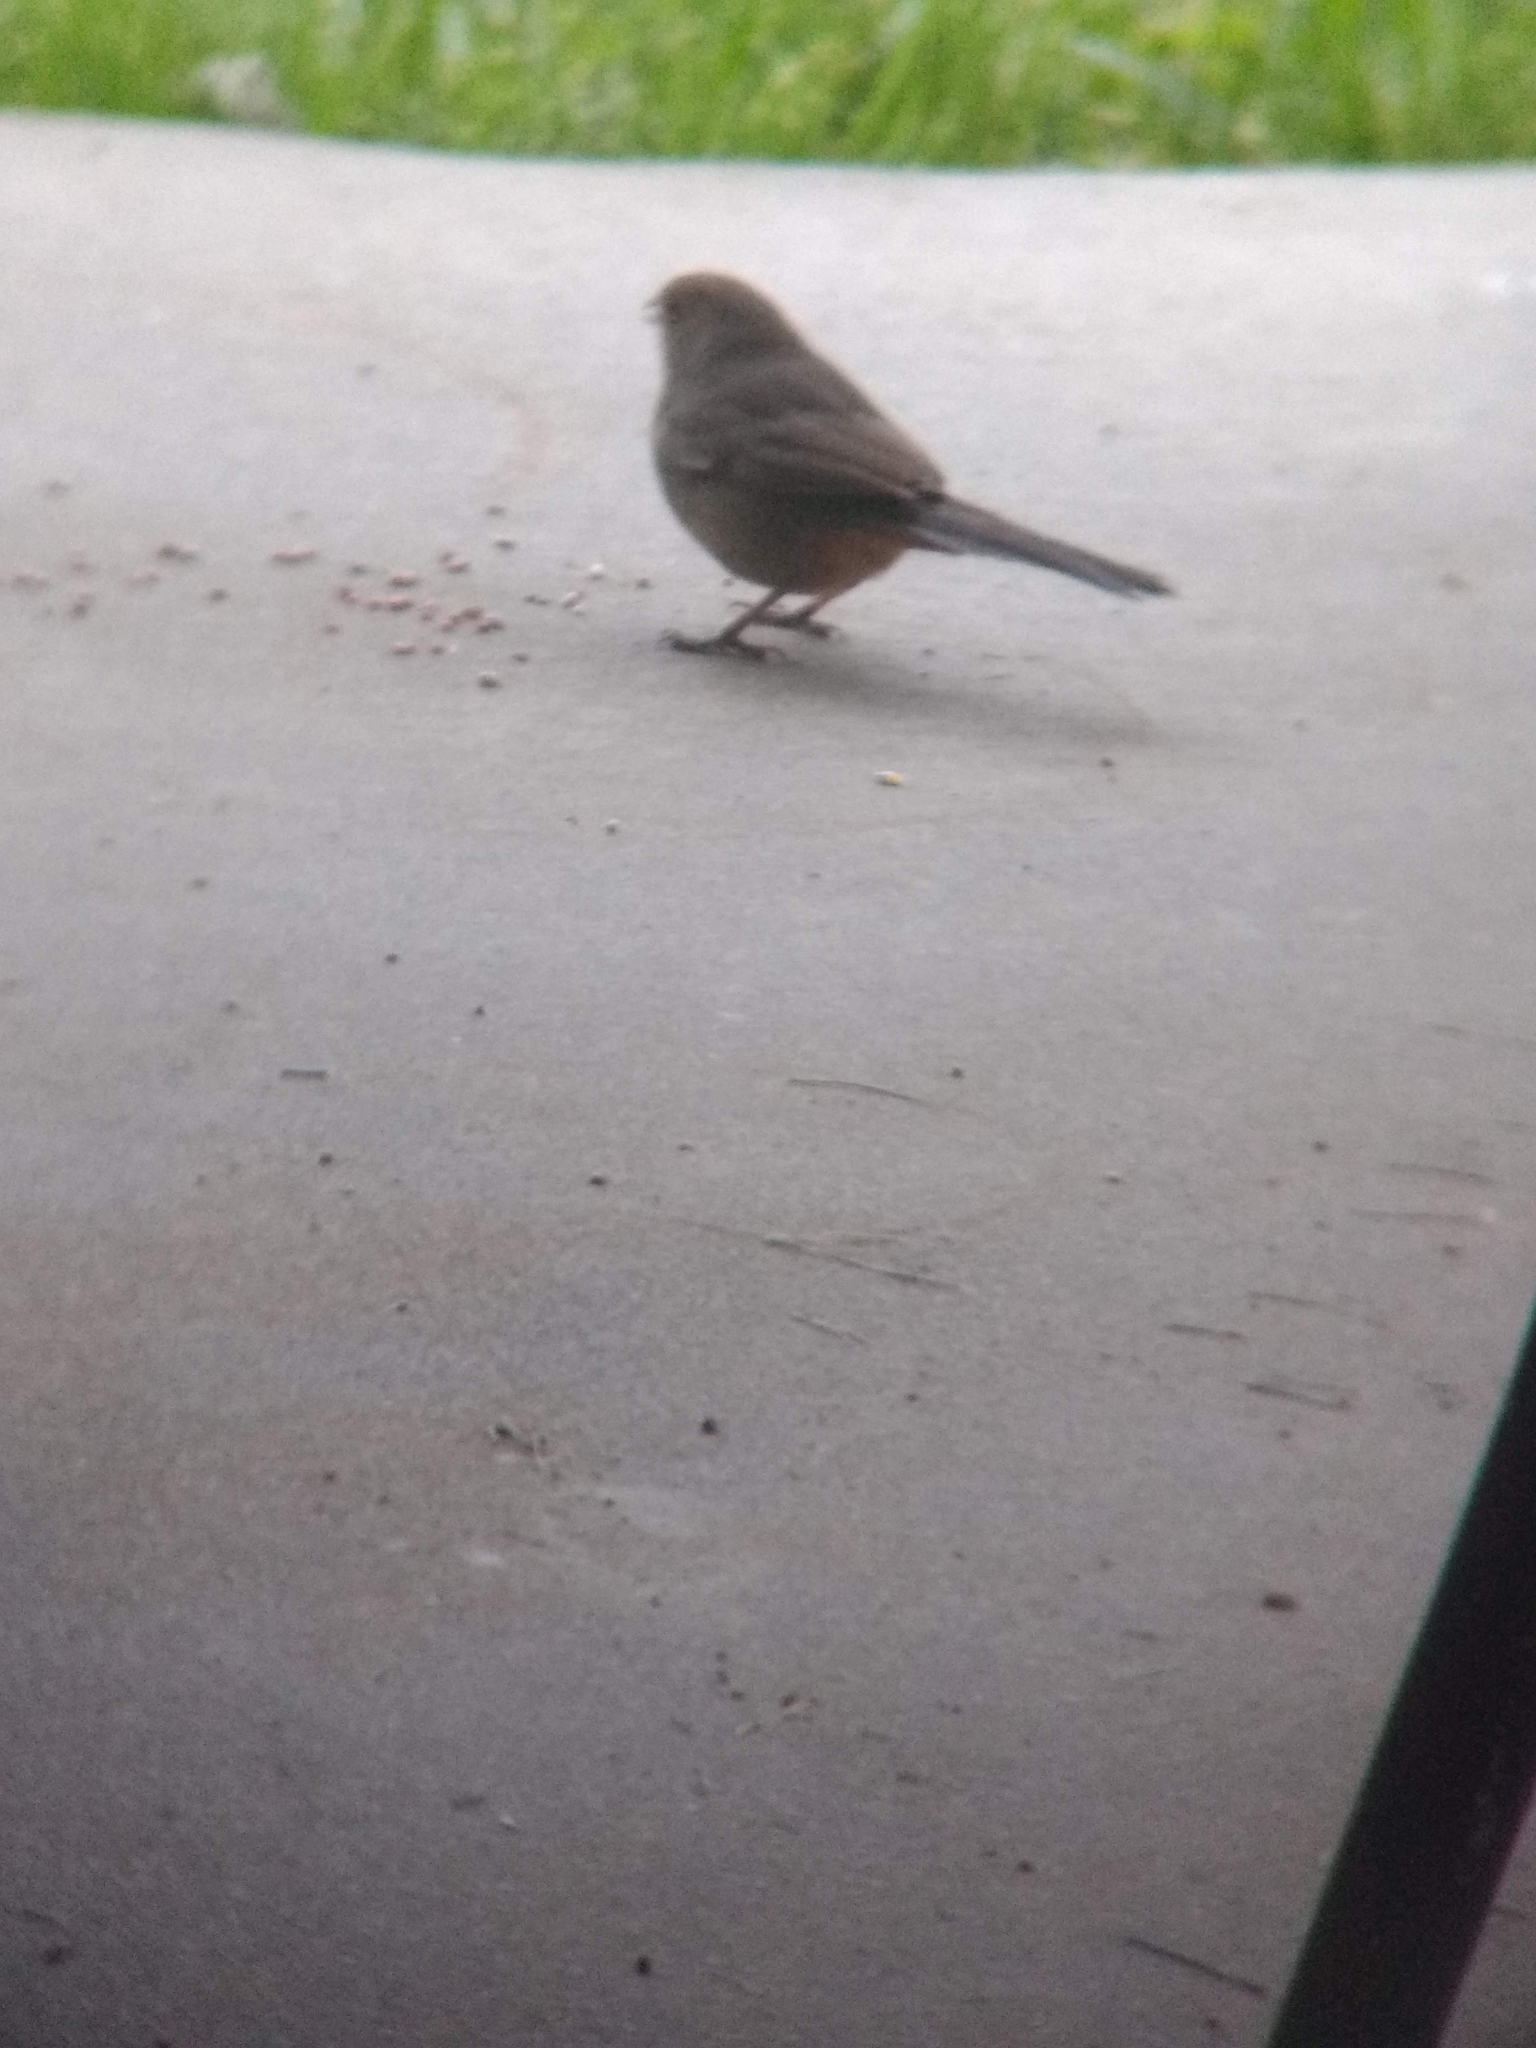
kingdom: Animalia
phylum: Chordata
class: Aves
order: Passeriformes
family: Passerellidae
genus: Melozone
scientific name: Melozone crissalis
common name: California towhee
